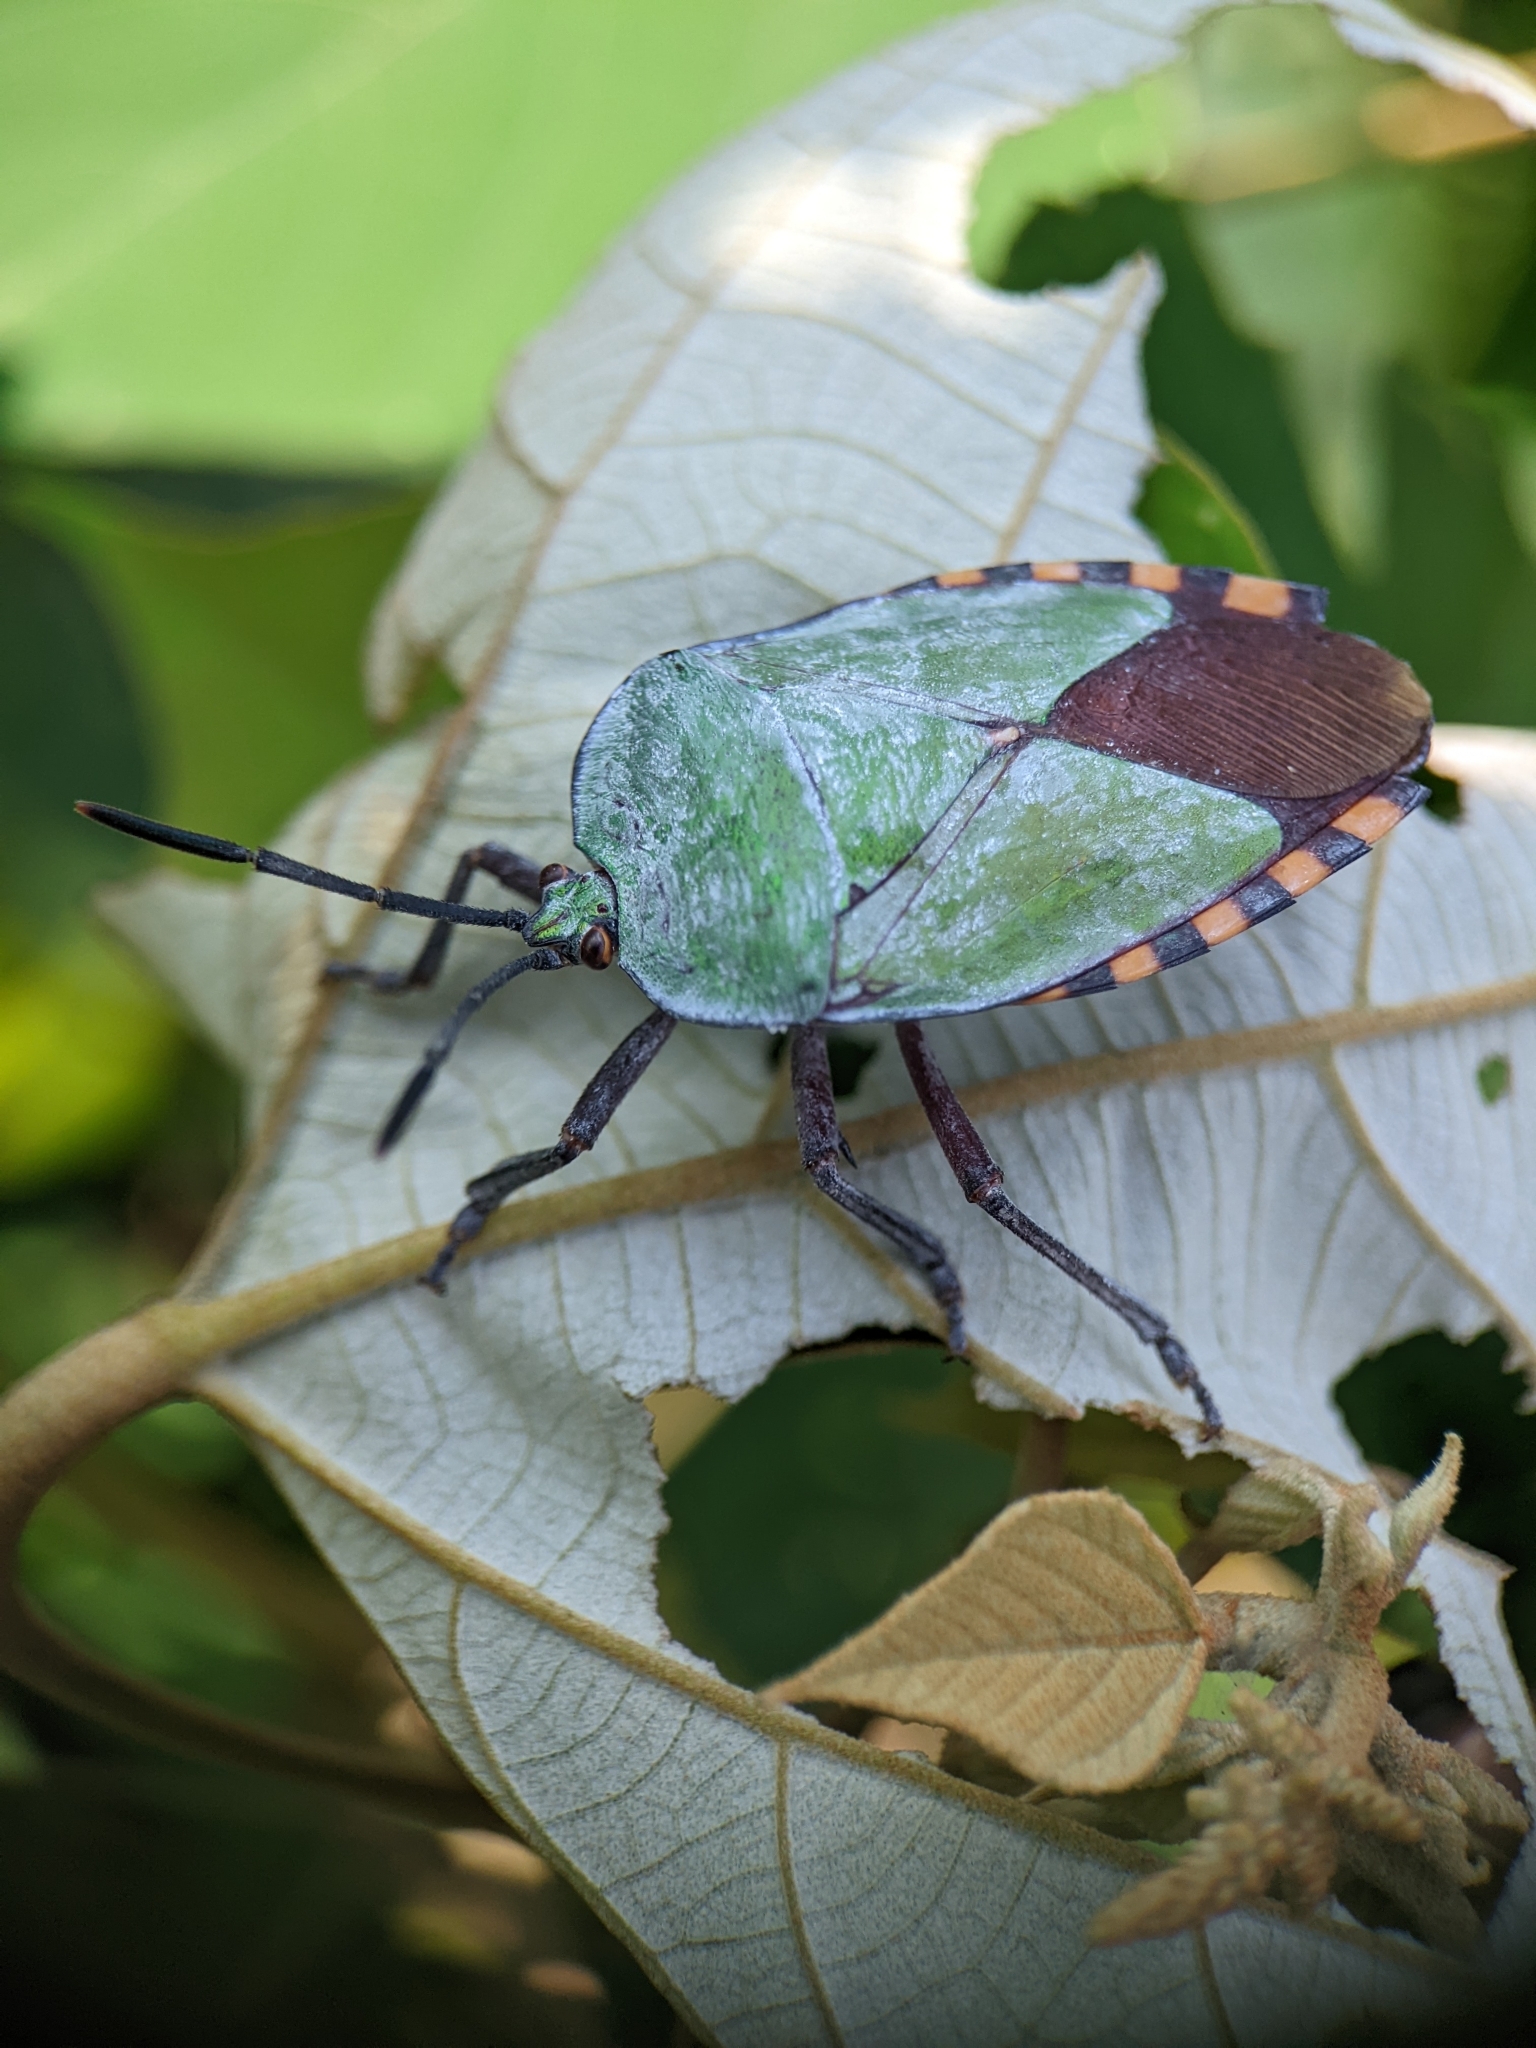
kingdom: Animalia
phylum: Arthropoda
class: Insecta
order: Hemiptera
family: Tessaratomidae
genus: Pycanum
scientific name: Pycanum alternatum
